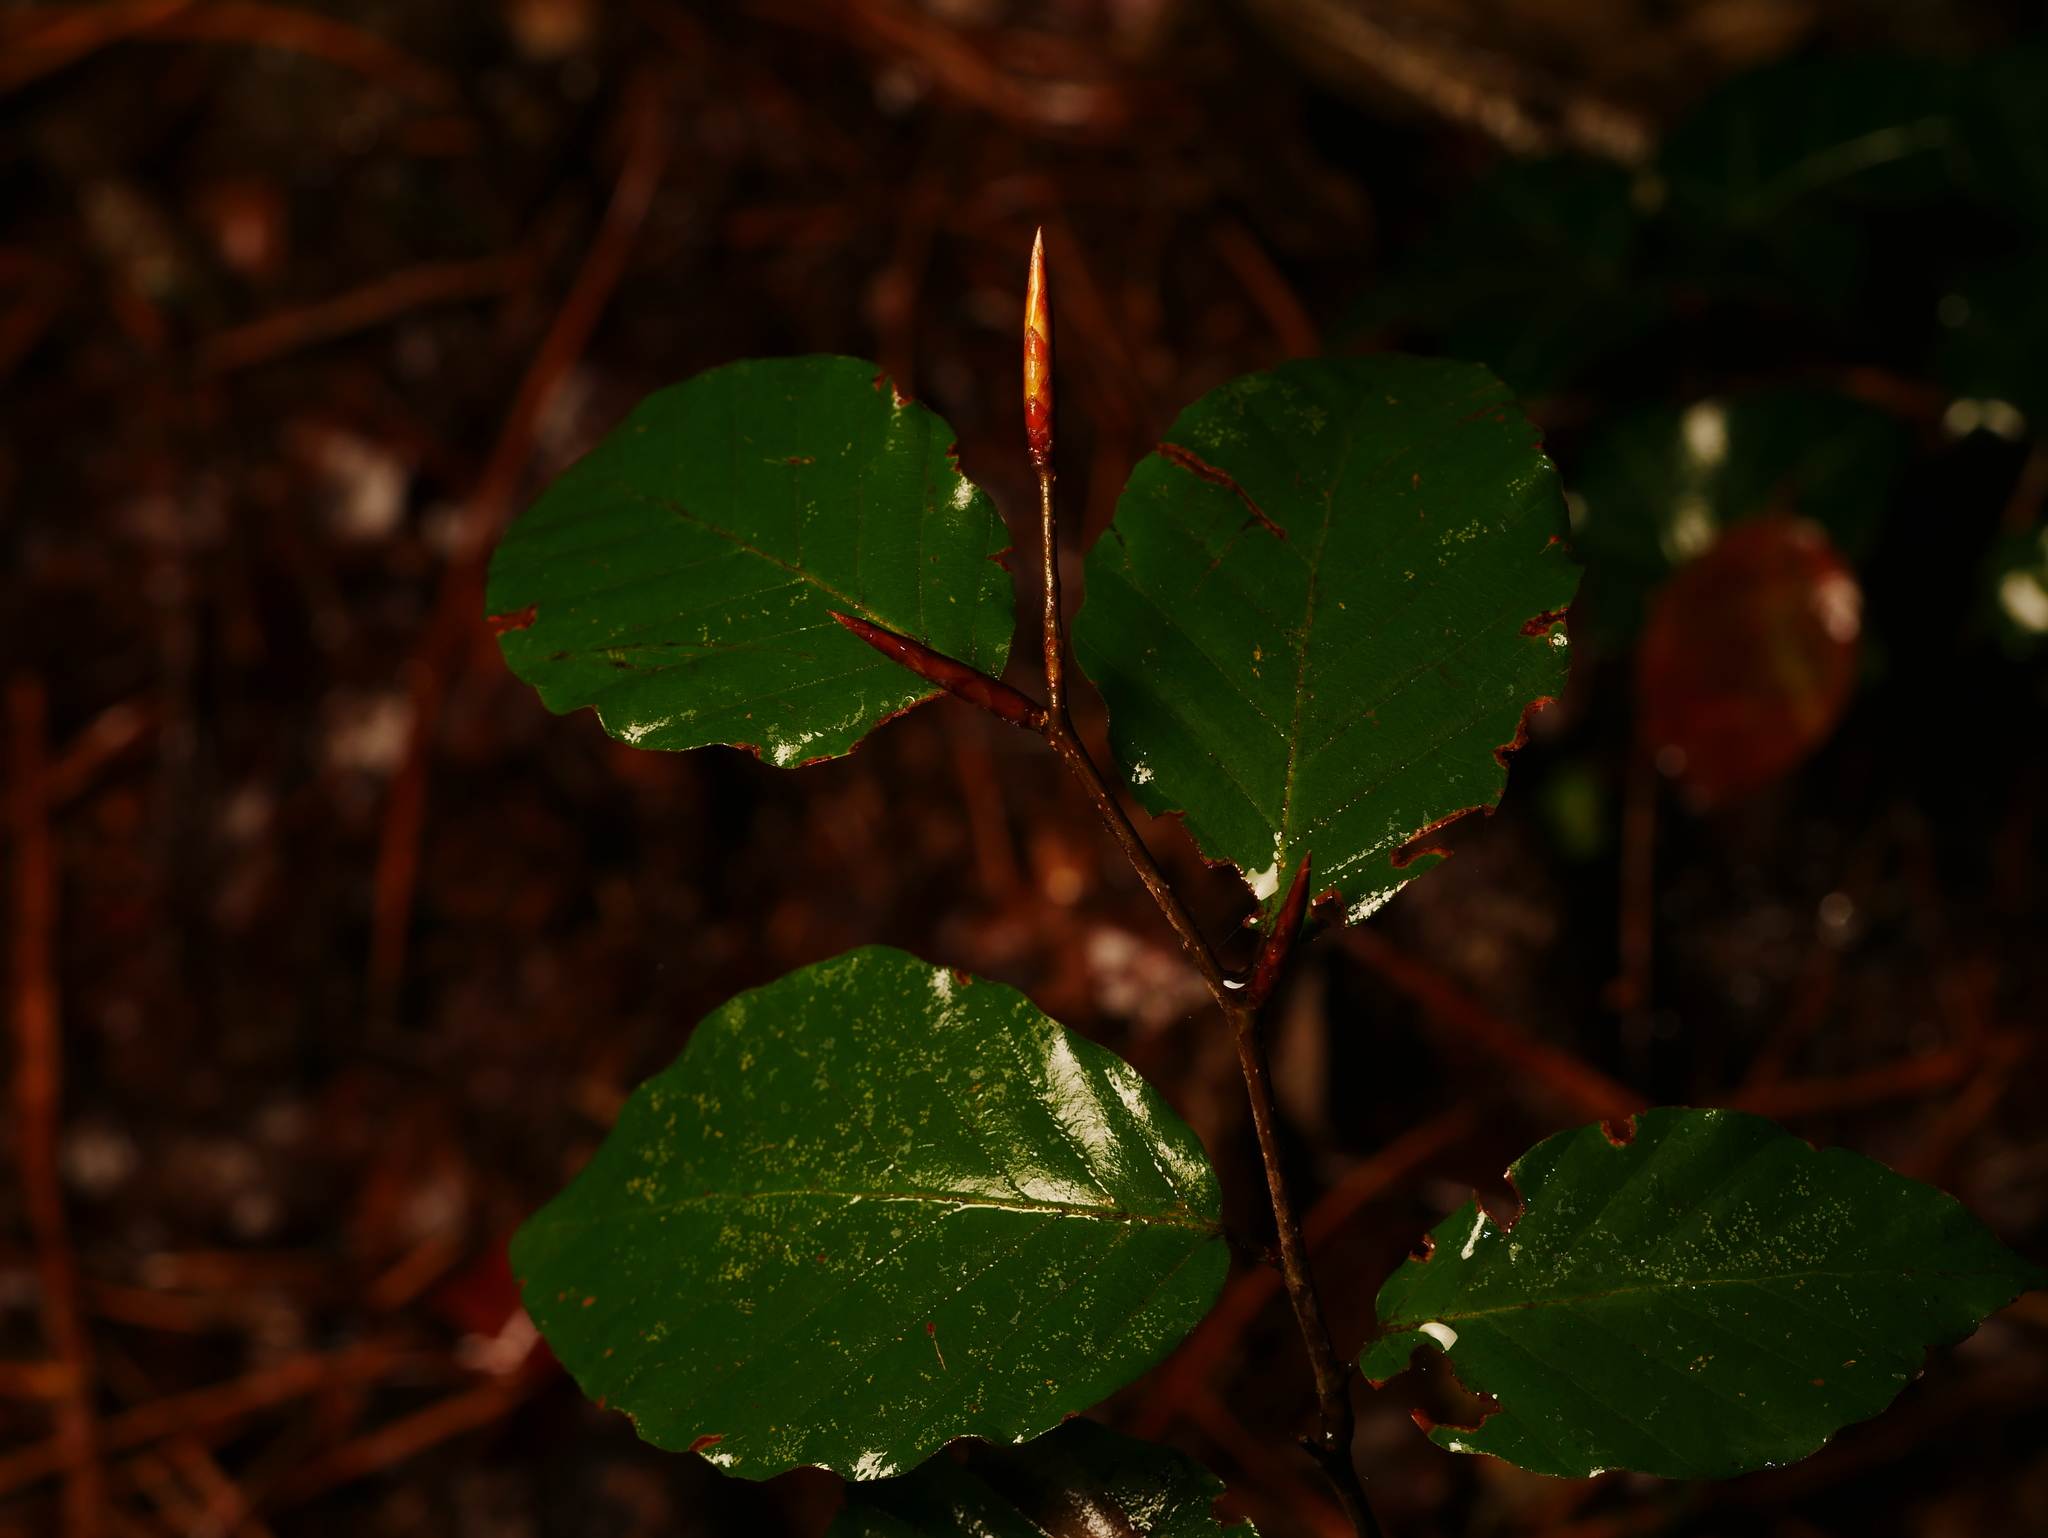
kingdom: Plantae
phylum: Tracheophyta
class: Magnoliopsida
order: Fagales
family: Fagaceae
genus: Fagus
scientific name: Fagus sylvatica
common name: Beech
